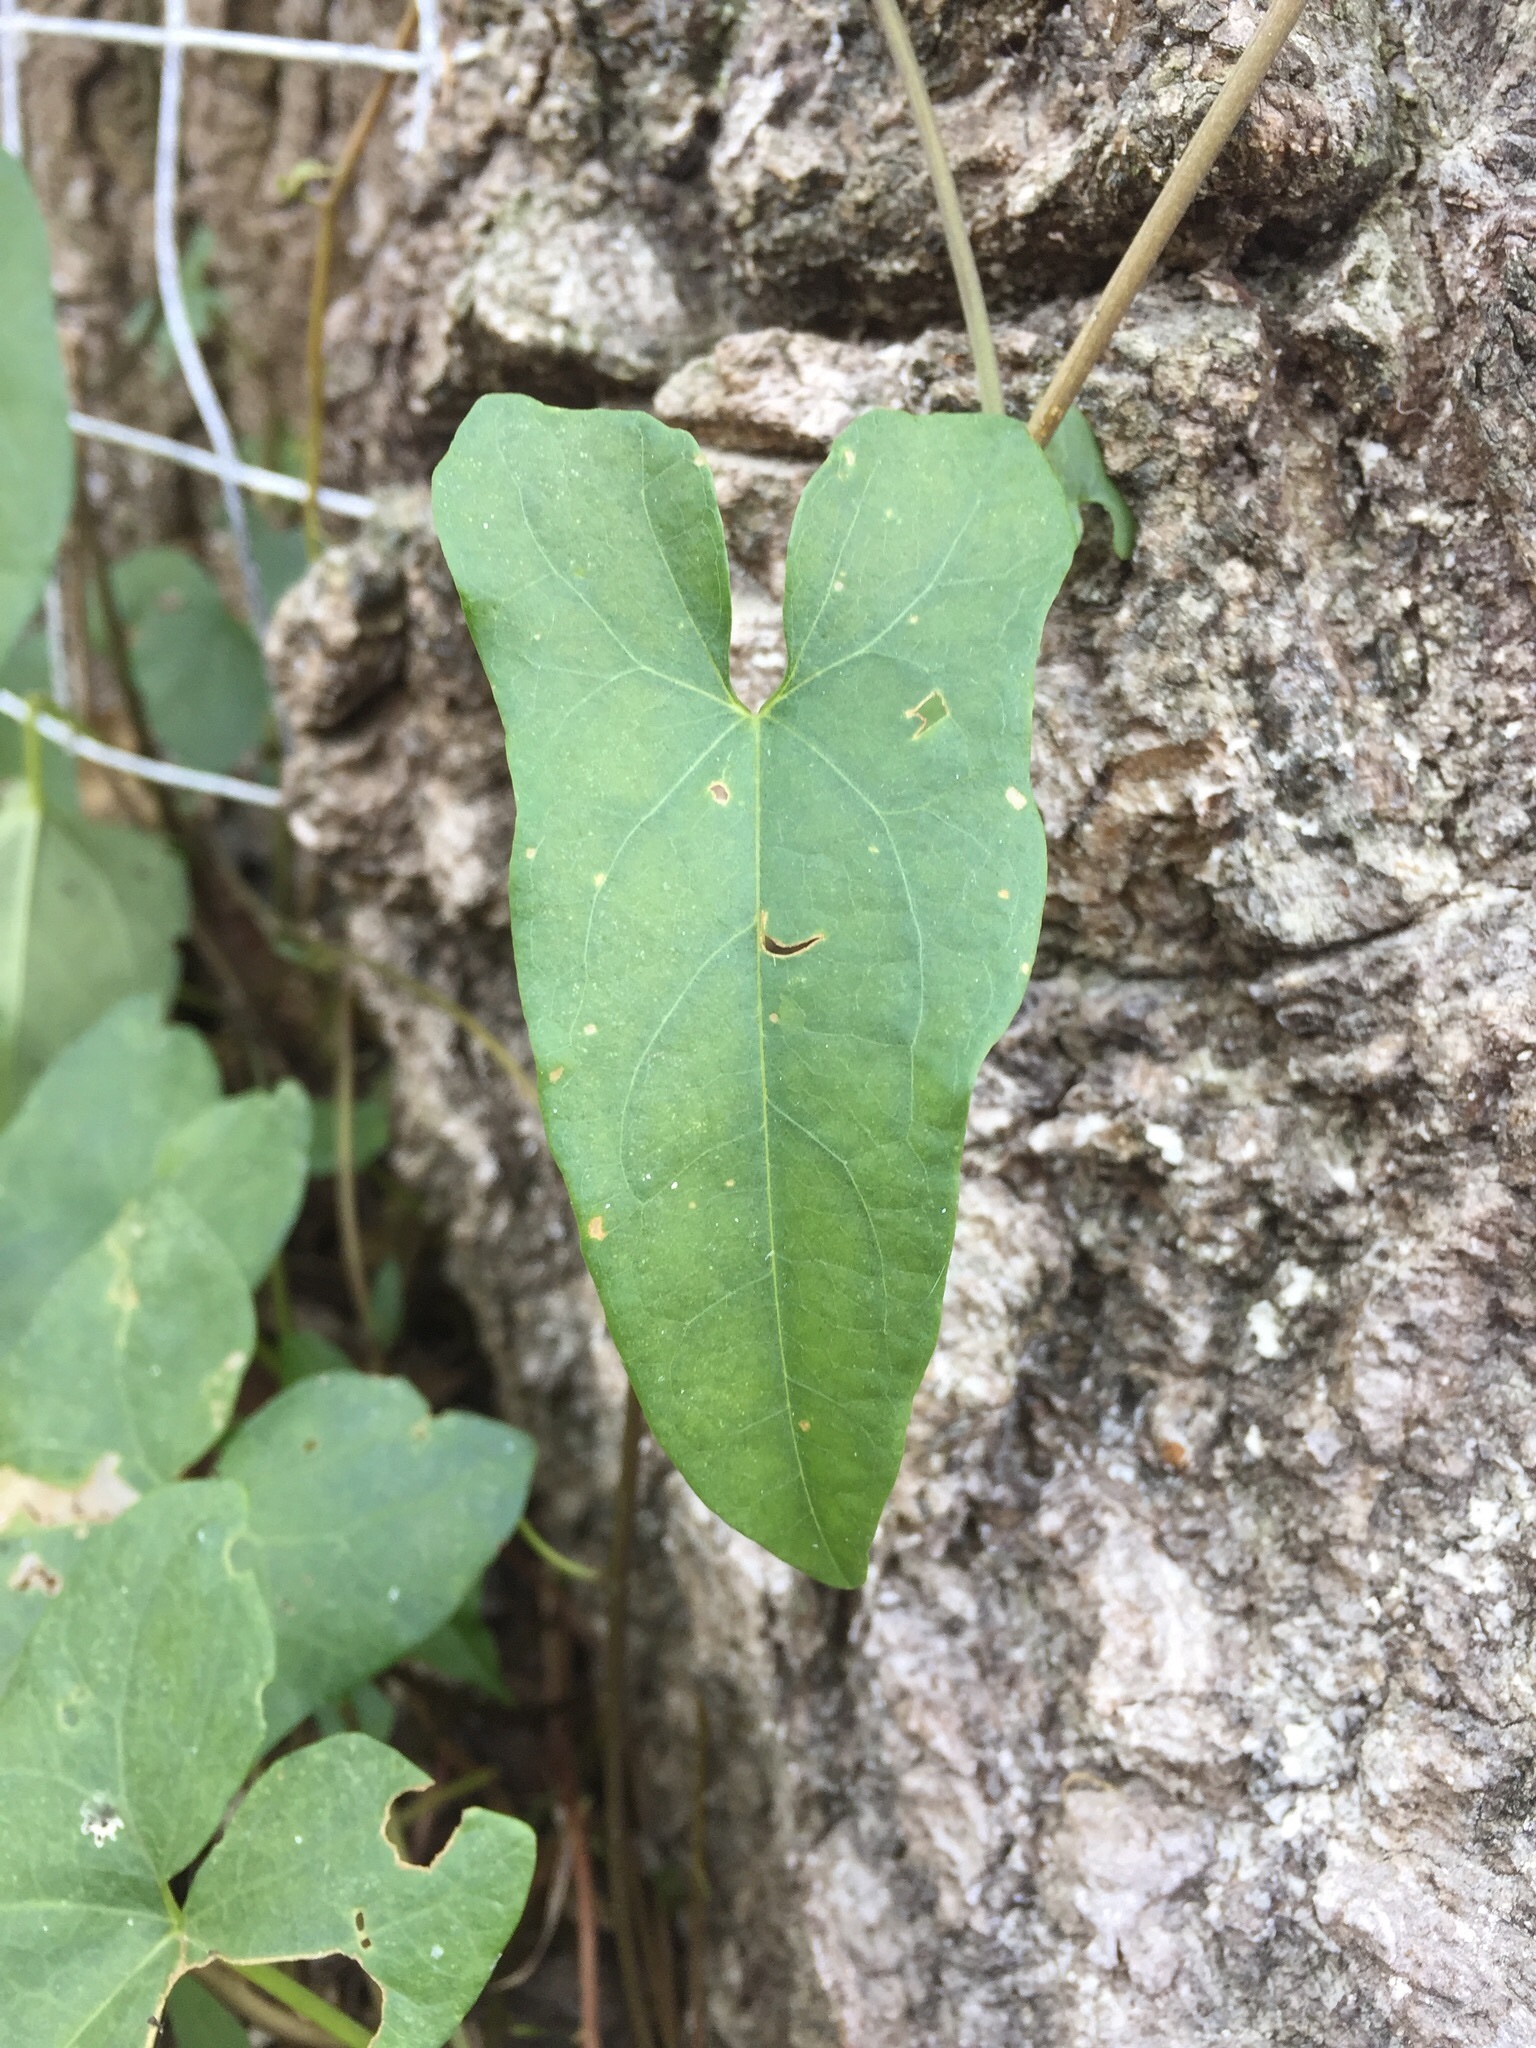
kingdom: Plantae
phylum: Tracheophyta
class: Magnoliopsida
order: Solanales
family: Convolvulaceae
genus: Calystegia
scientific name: Calystegia sepium
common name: Hedge bindweed
